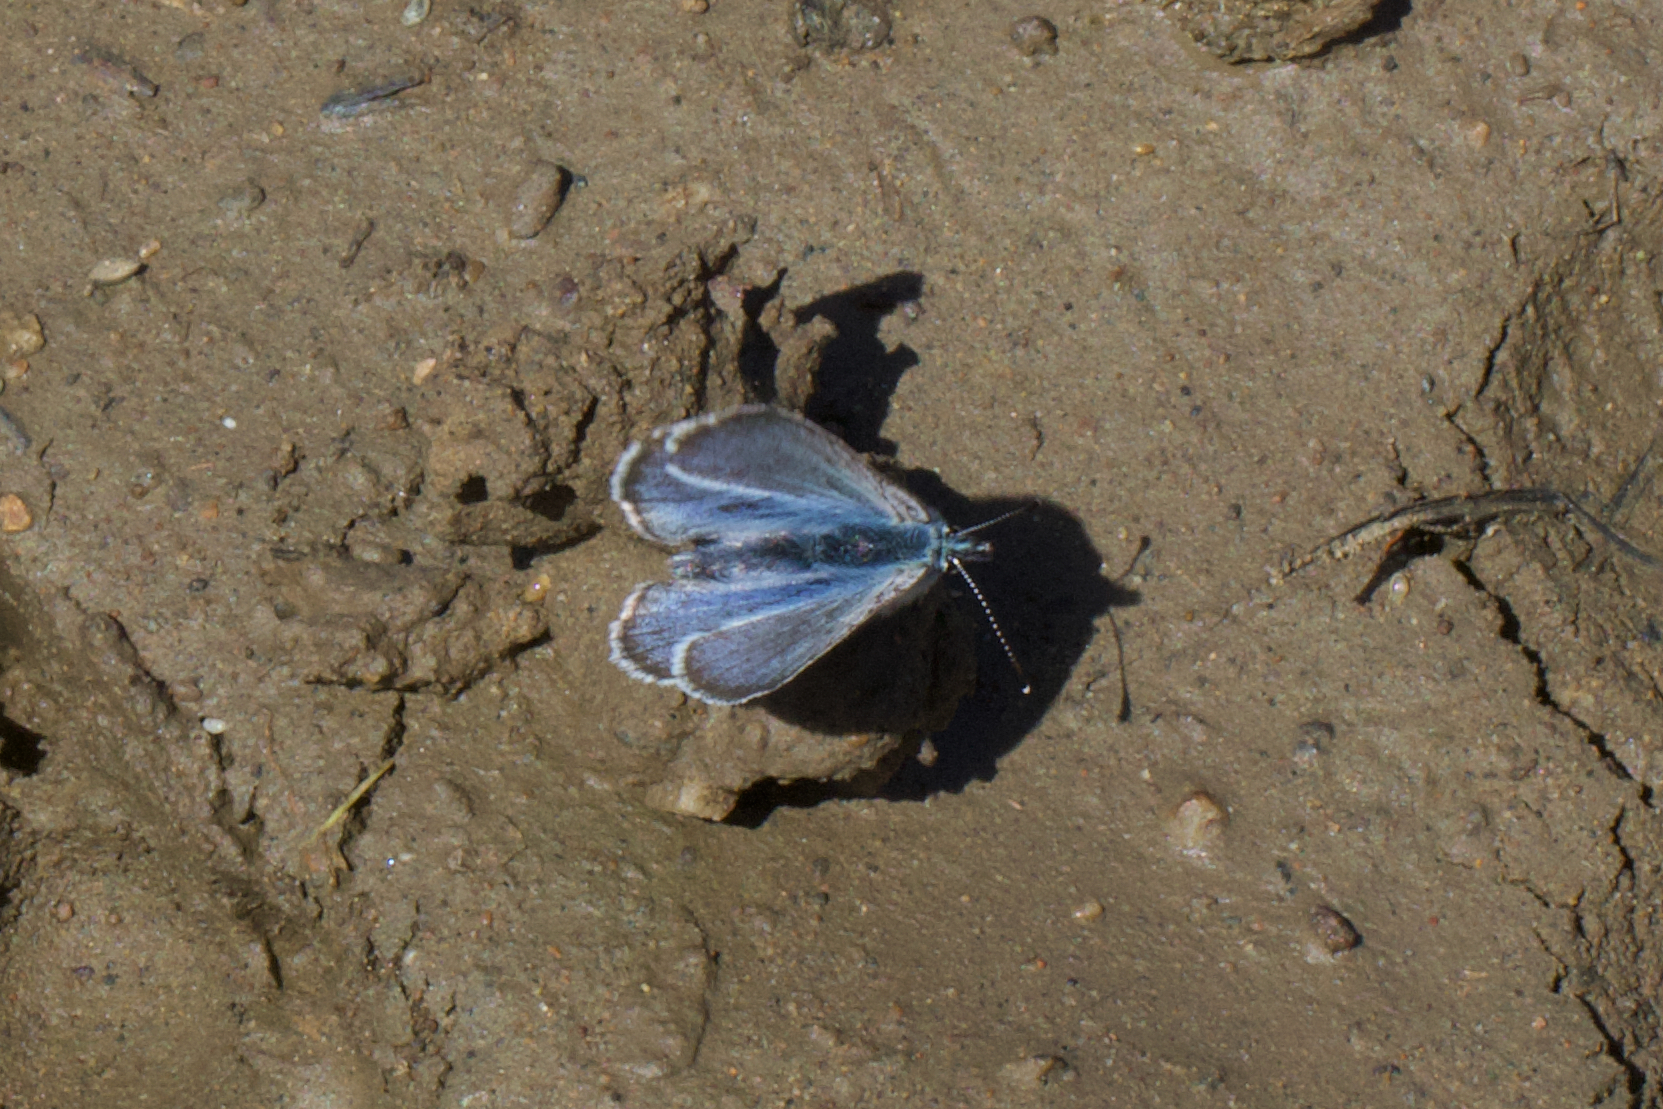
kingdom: Animalia
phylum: Arthropoda
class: Insecta
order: Lepidoptera
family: Lycaenidae
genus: Glaucopsyche
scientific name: Glaucopsyche lygdamus
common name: Silvery blue
